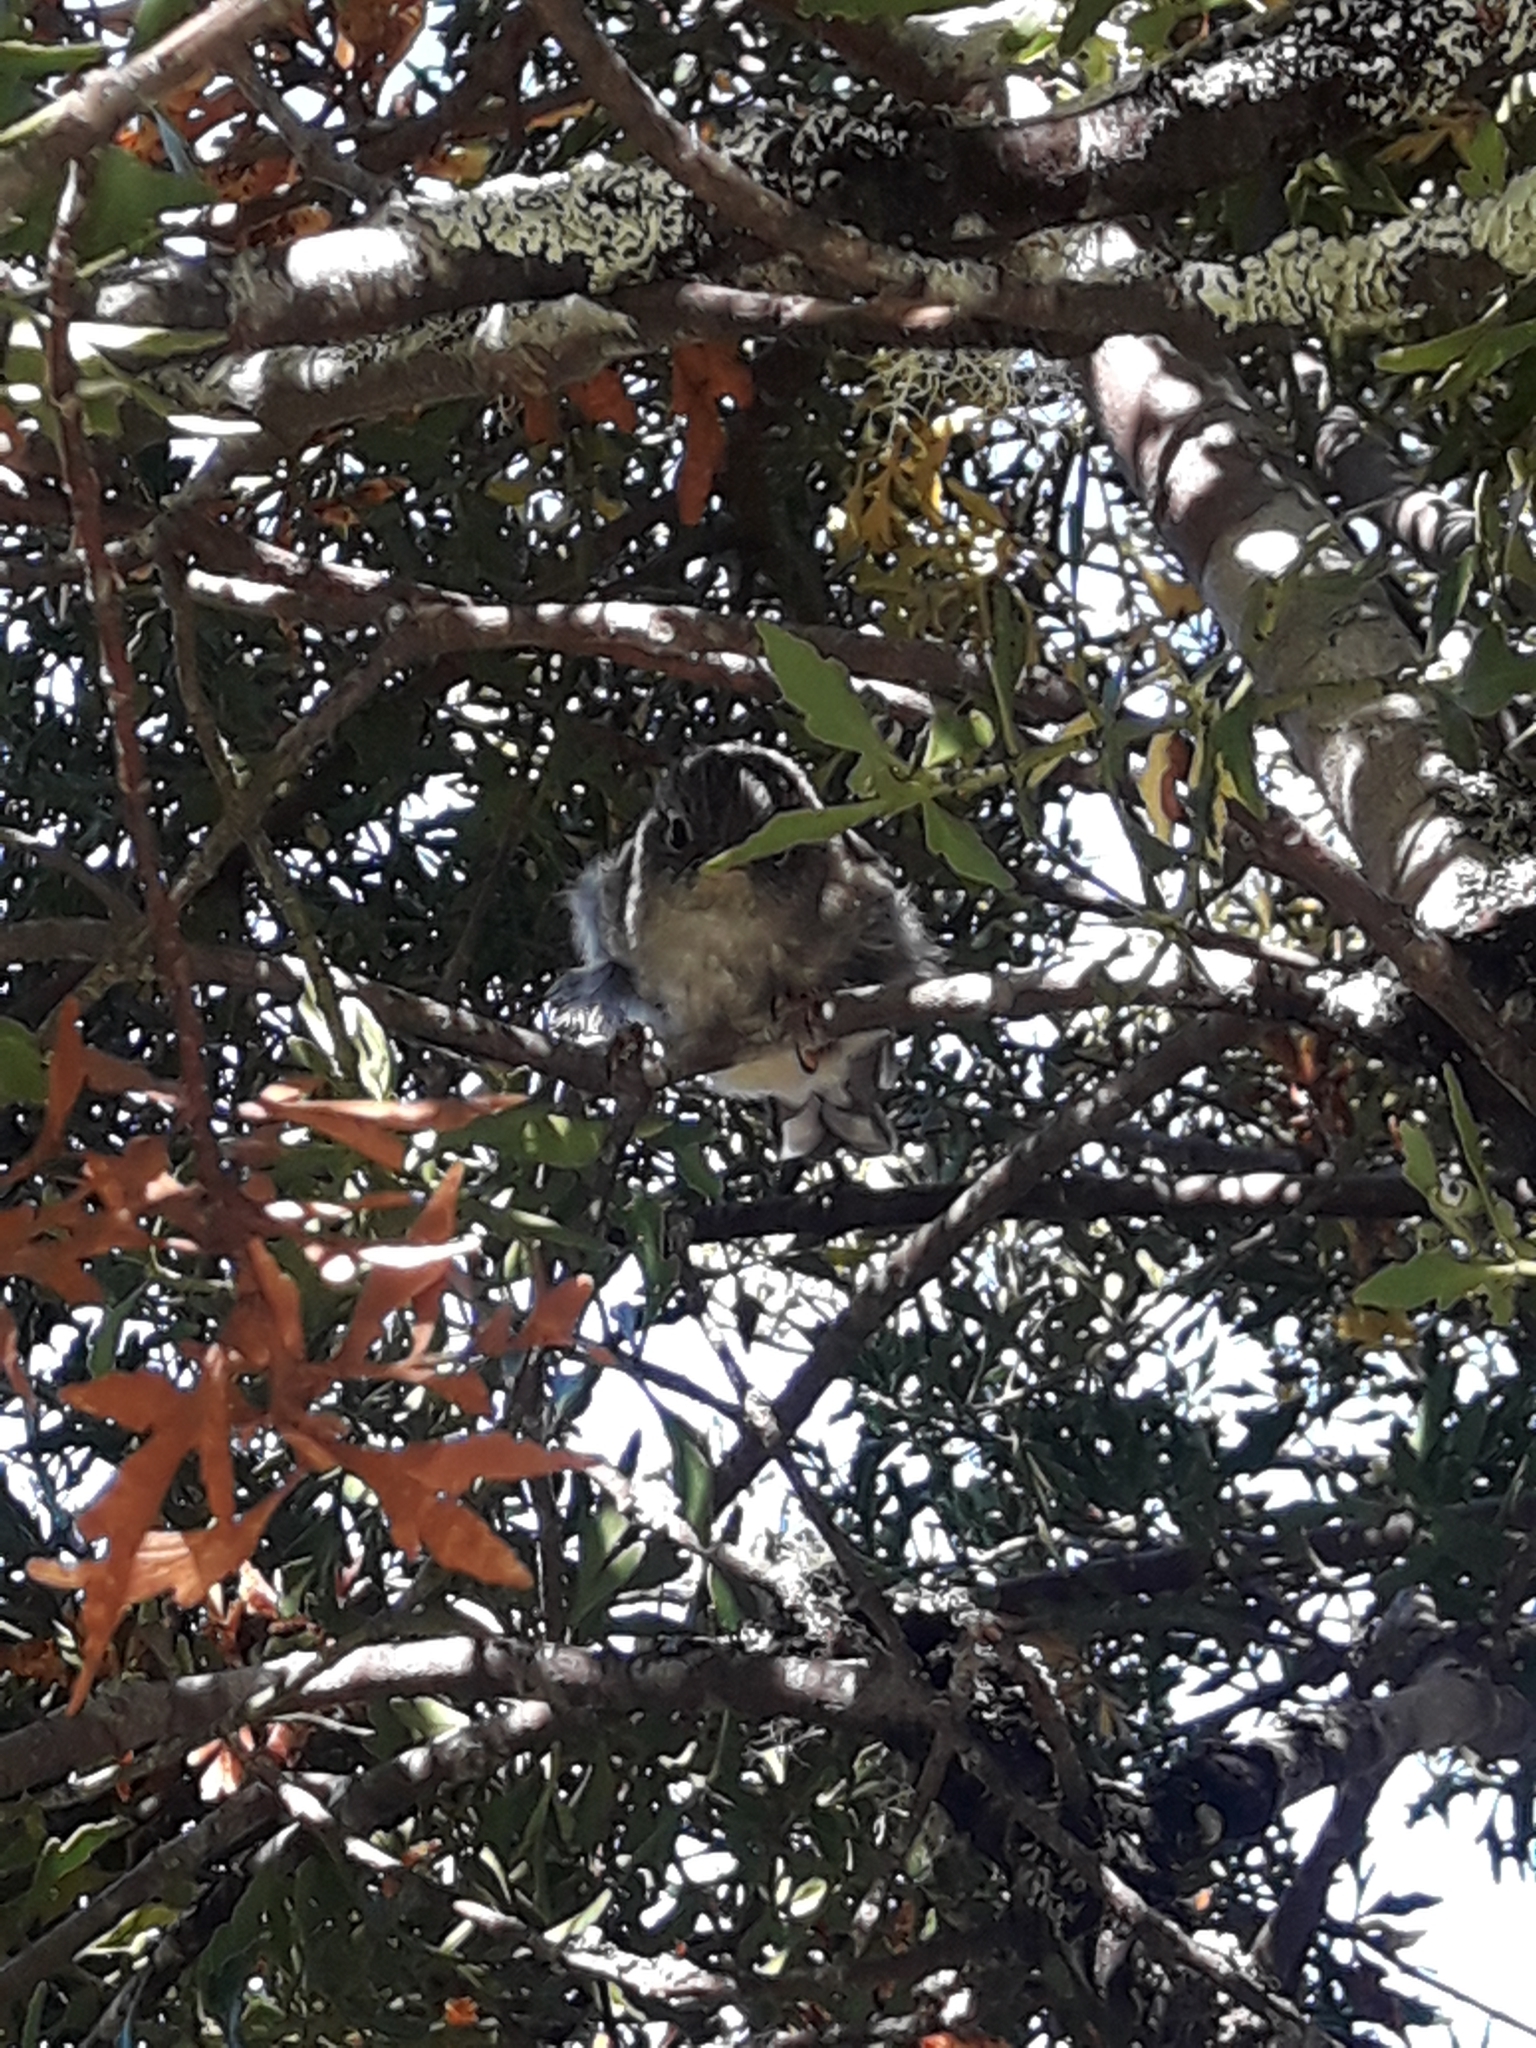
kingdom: Animalia
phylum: Chordata
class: Aves
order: Passeriformes
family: Petroicidae
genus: Petroica
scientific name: Petroica macrocephala
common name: Tomtit
